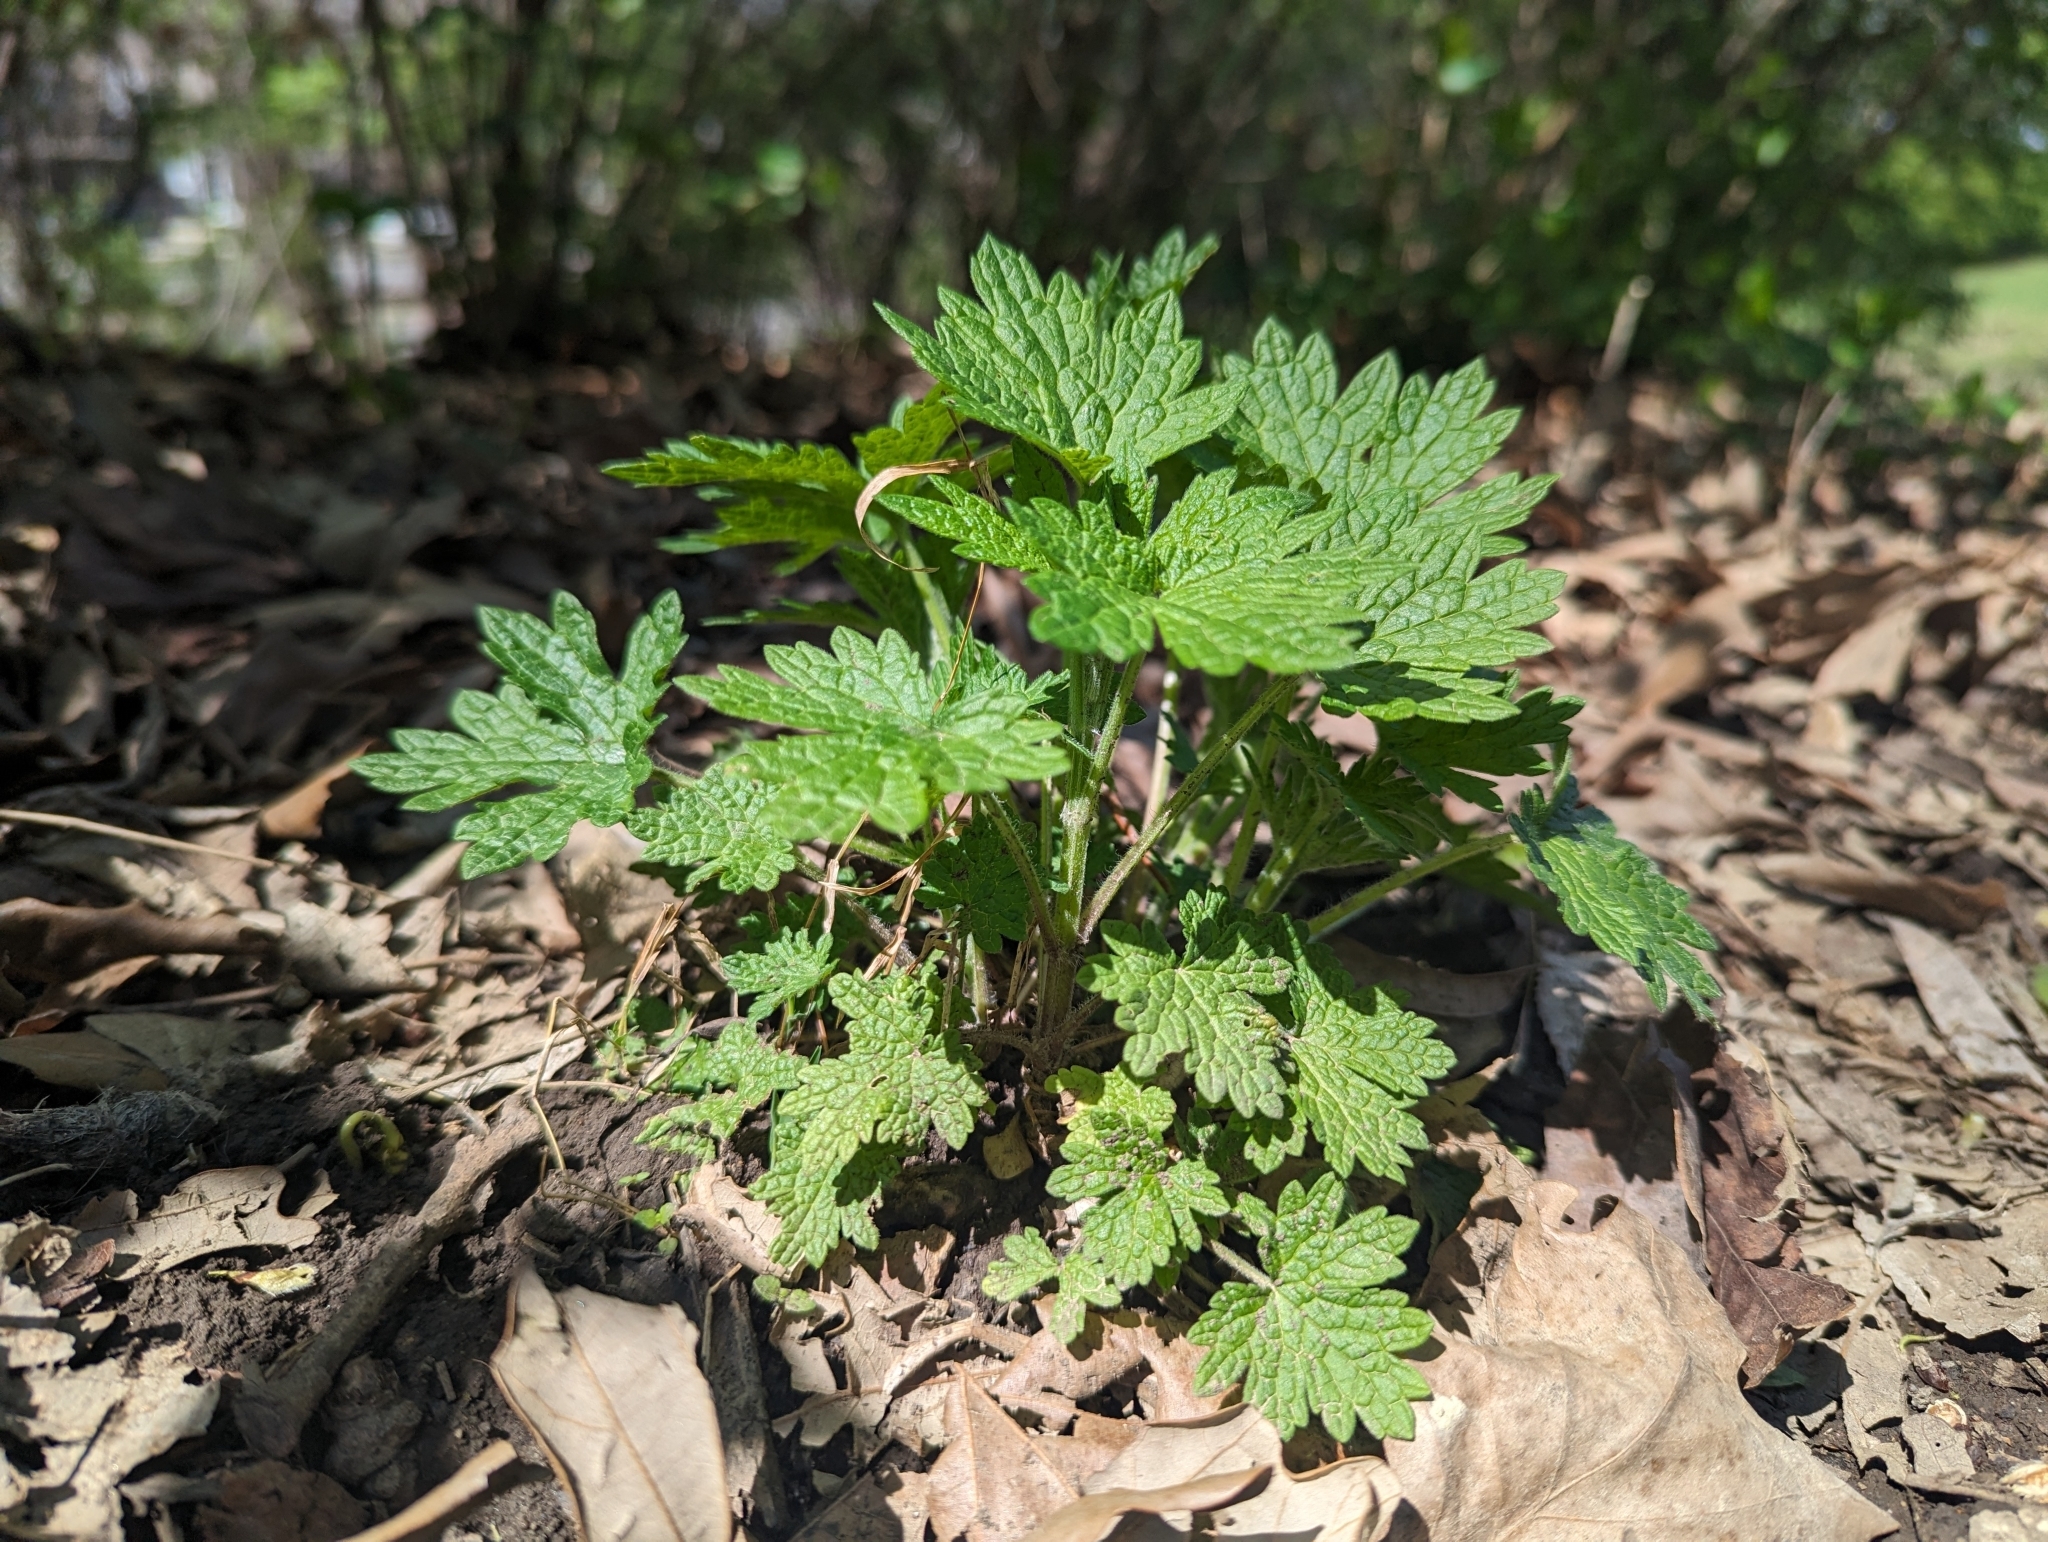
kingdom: Plantae
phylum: Tracheophyta
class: Magnoliopsida
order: Lamiales
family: Lamiaceae
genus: Leonurus
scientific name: Leonurus cardiaca
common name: Motherwort
